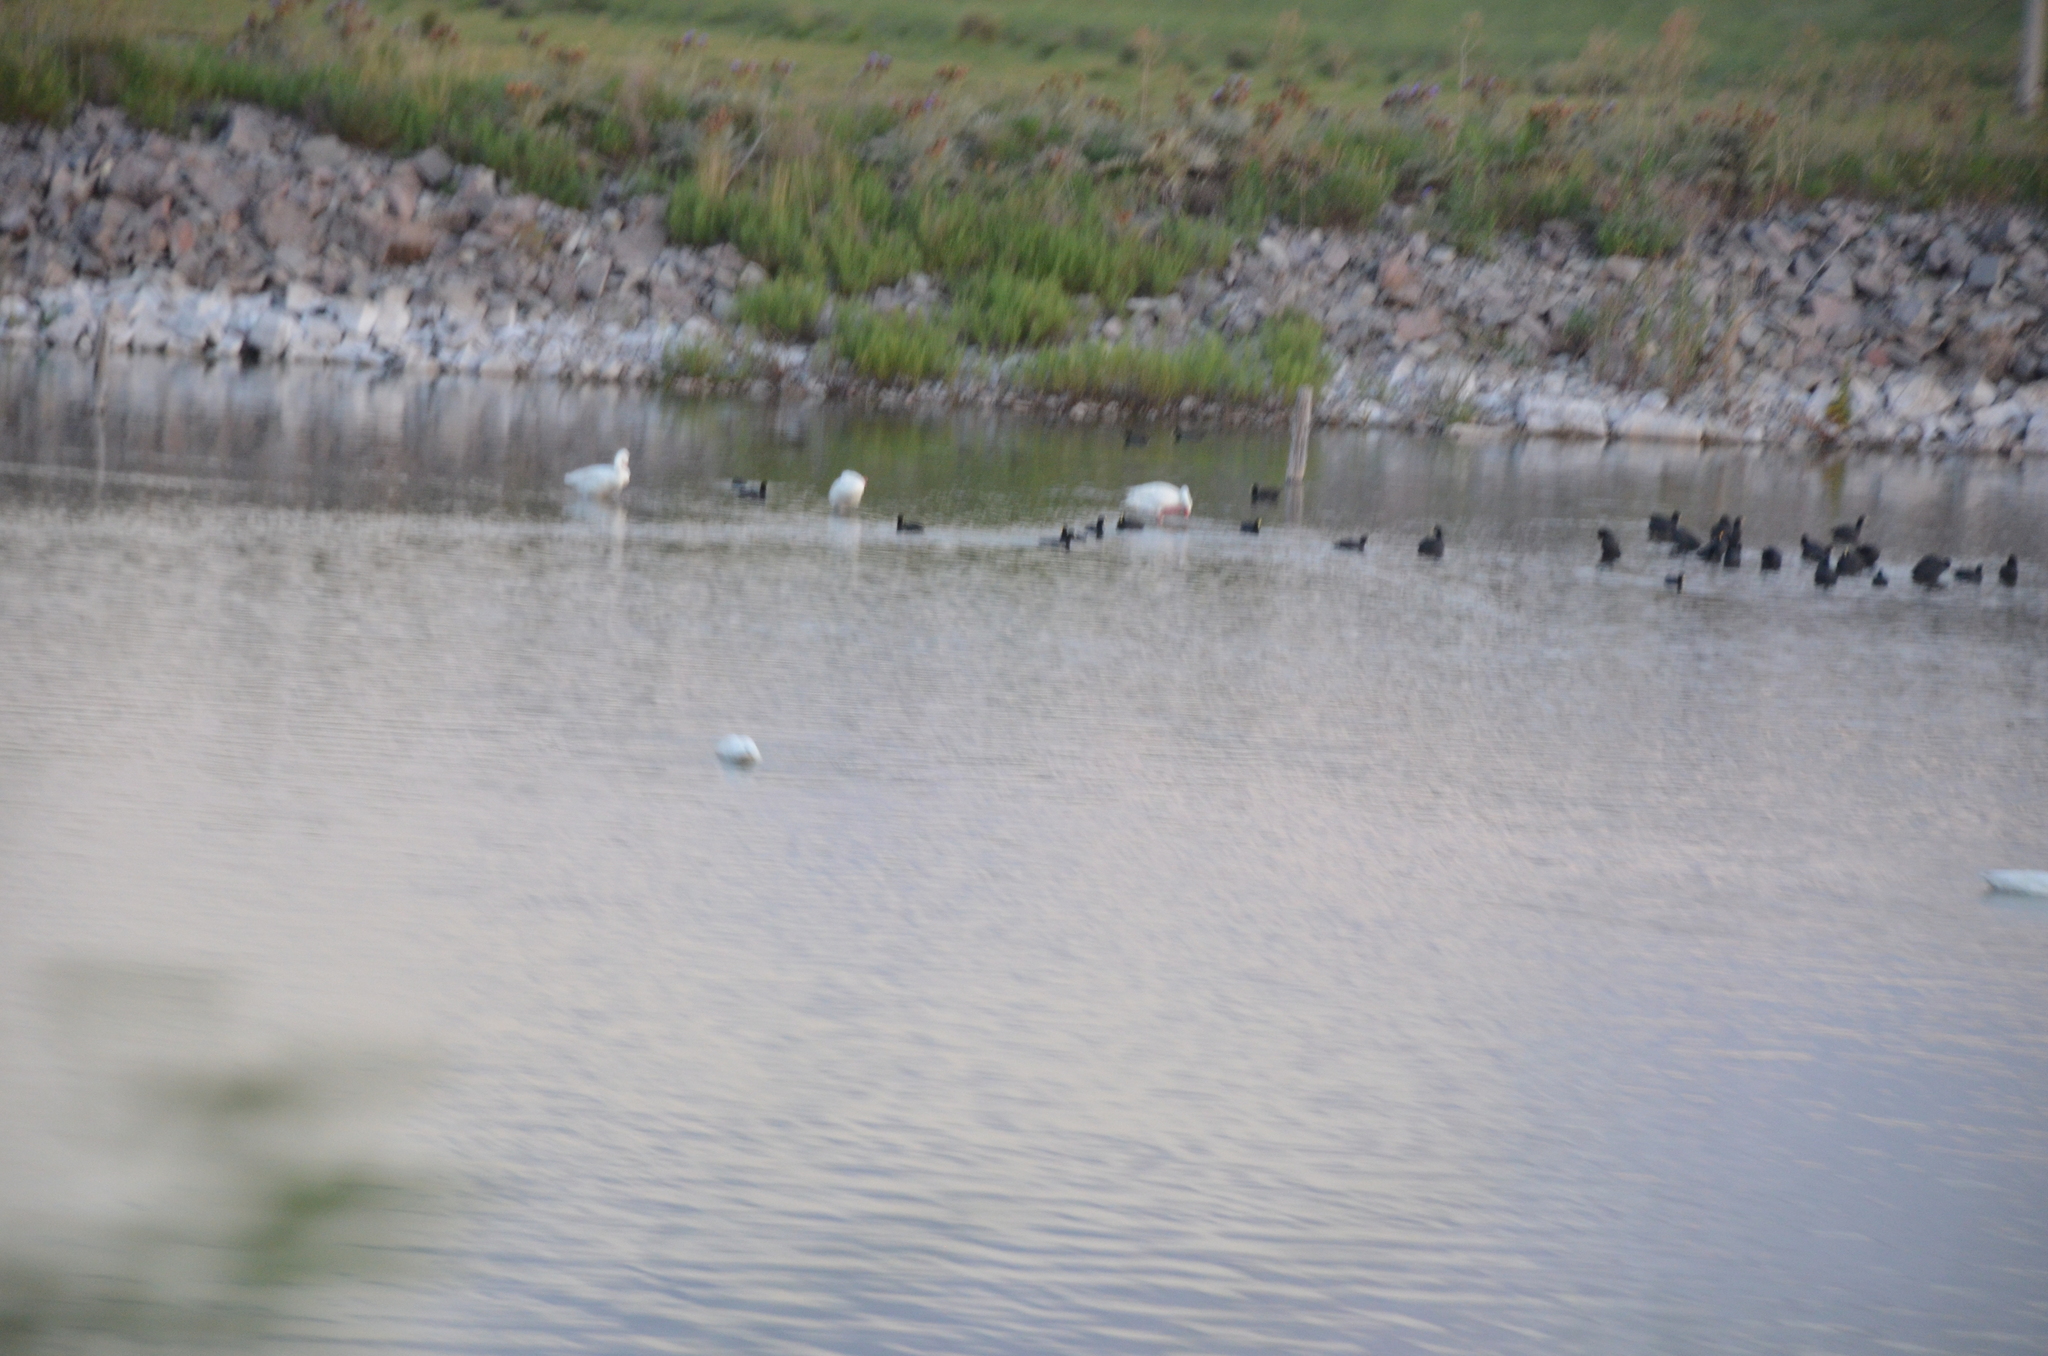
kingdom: Animalia
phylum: Chordata
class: Aves
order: Anseriformes
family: Anatidae
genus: Coscoroba
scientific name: Coscoroba coscoroba
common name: Coscoroba swan
